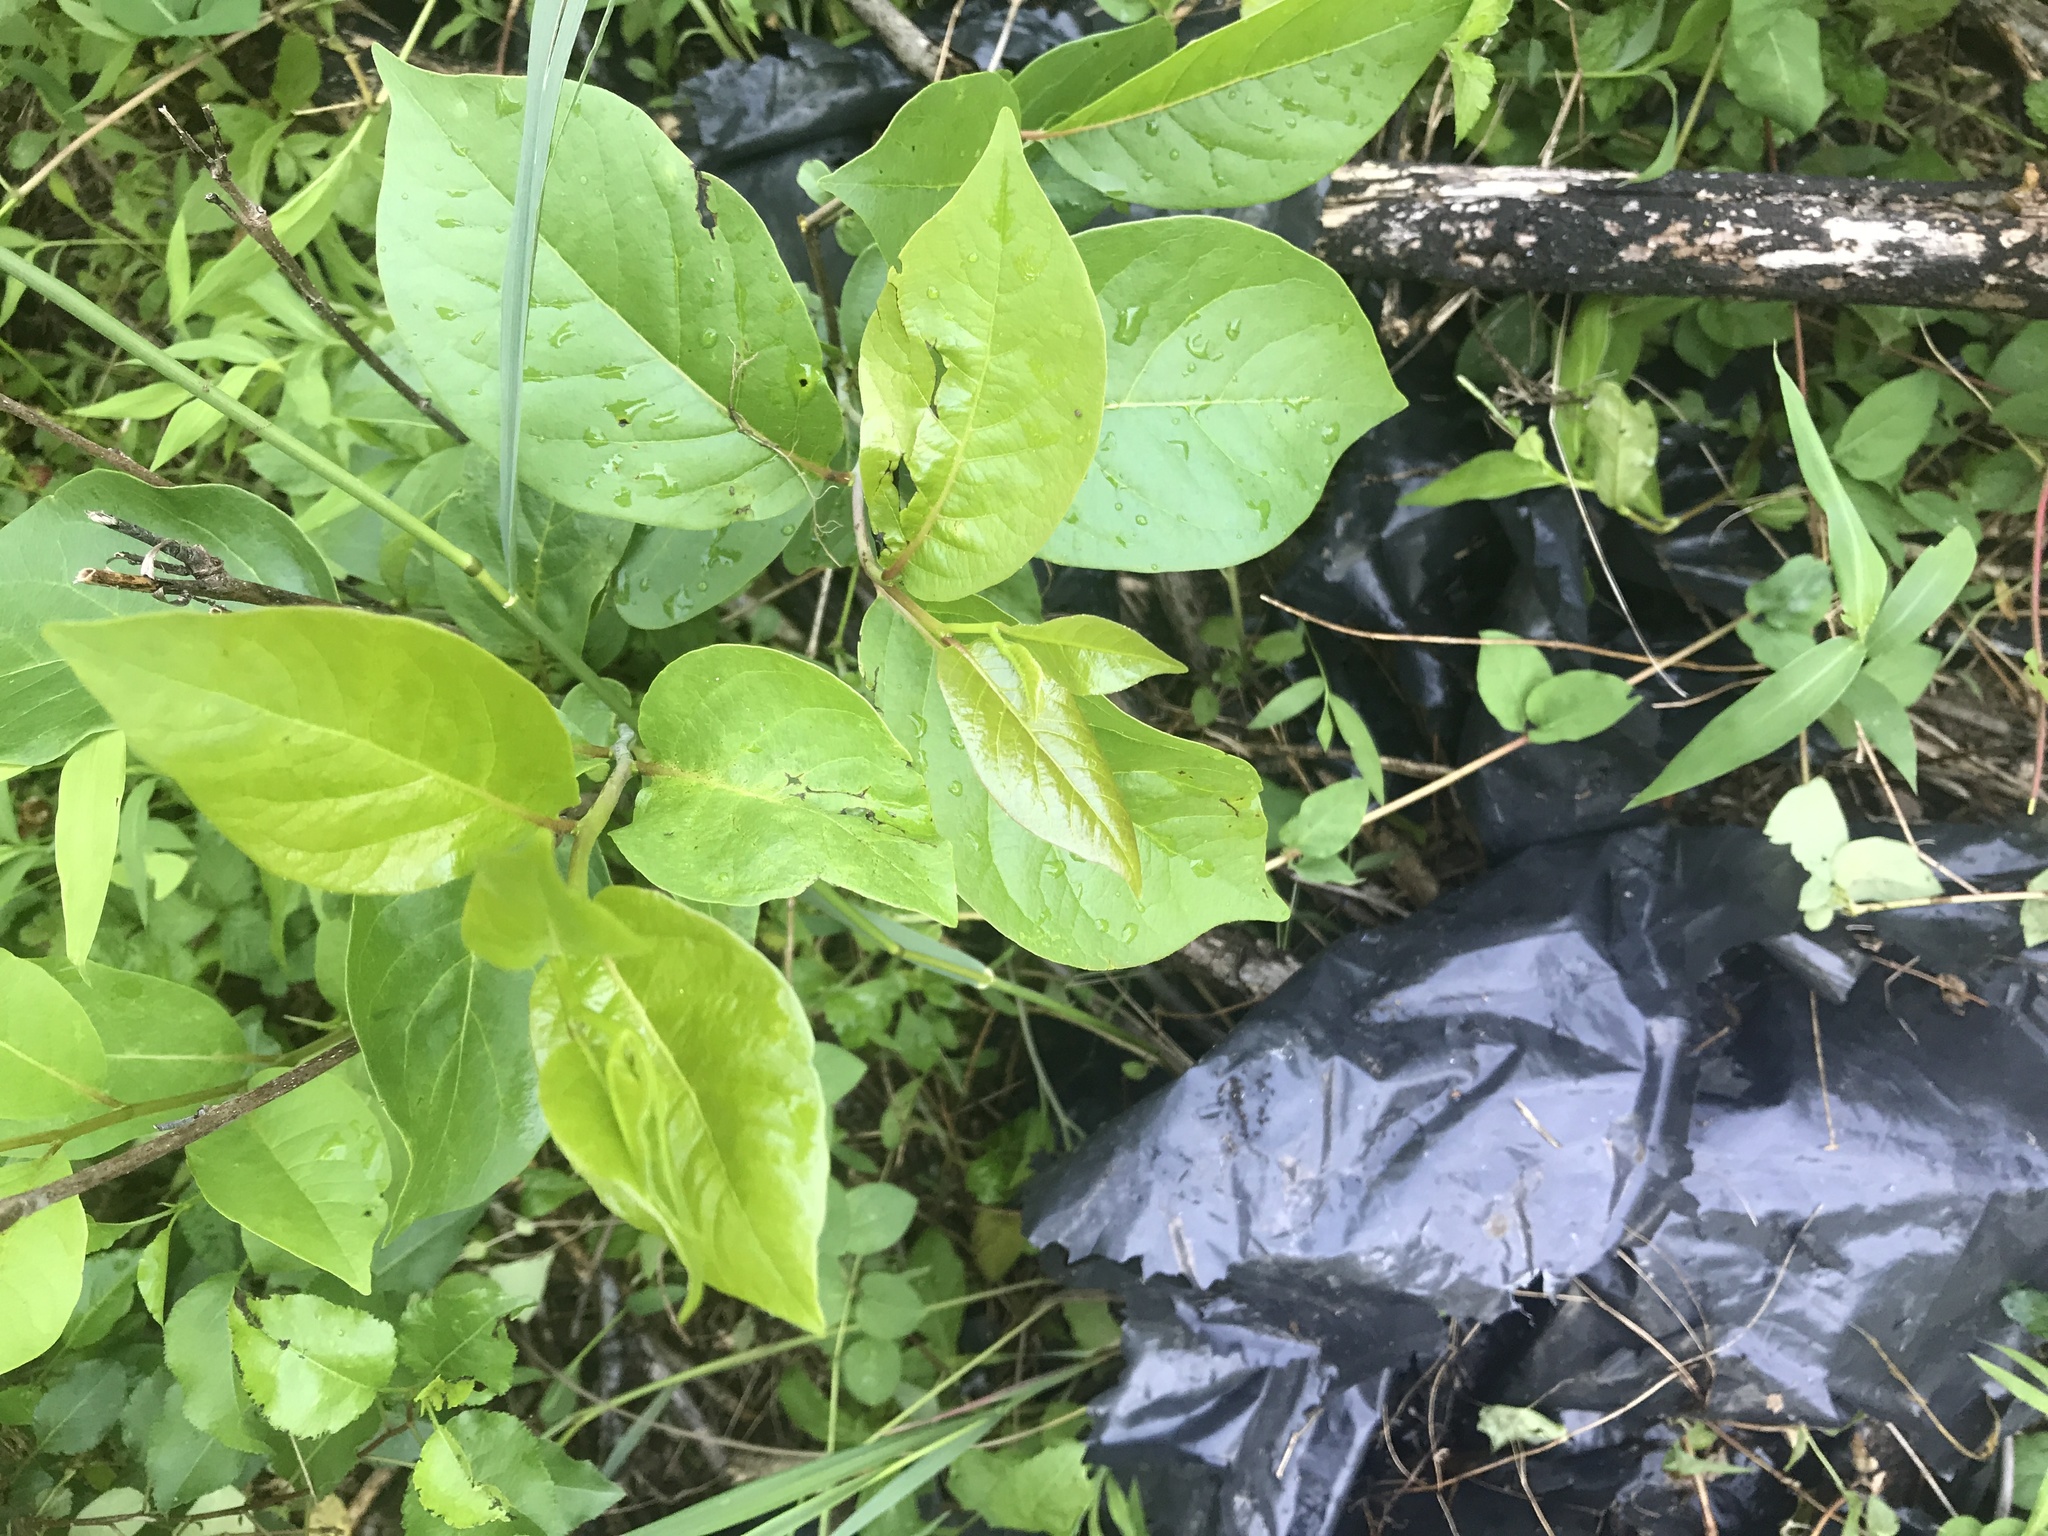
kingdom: Plantae
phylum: Tracheophyta
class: Magnoliopsida
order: Cornales
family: Nyssaceae
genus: Nyssa
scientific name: Nyssa sylvatica
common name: Black tupelo
